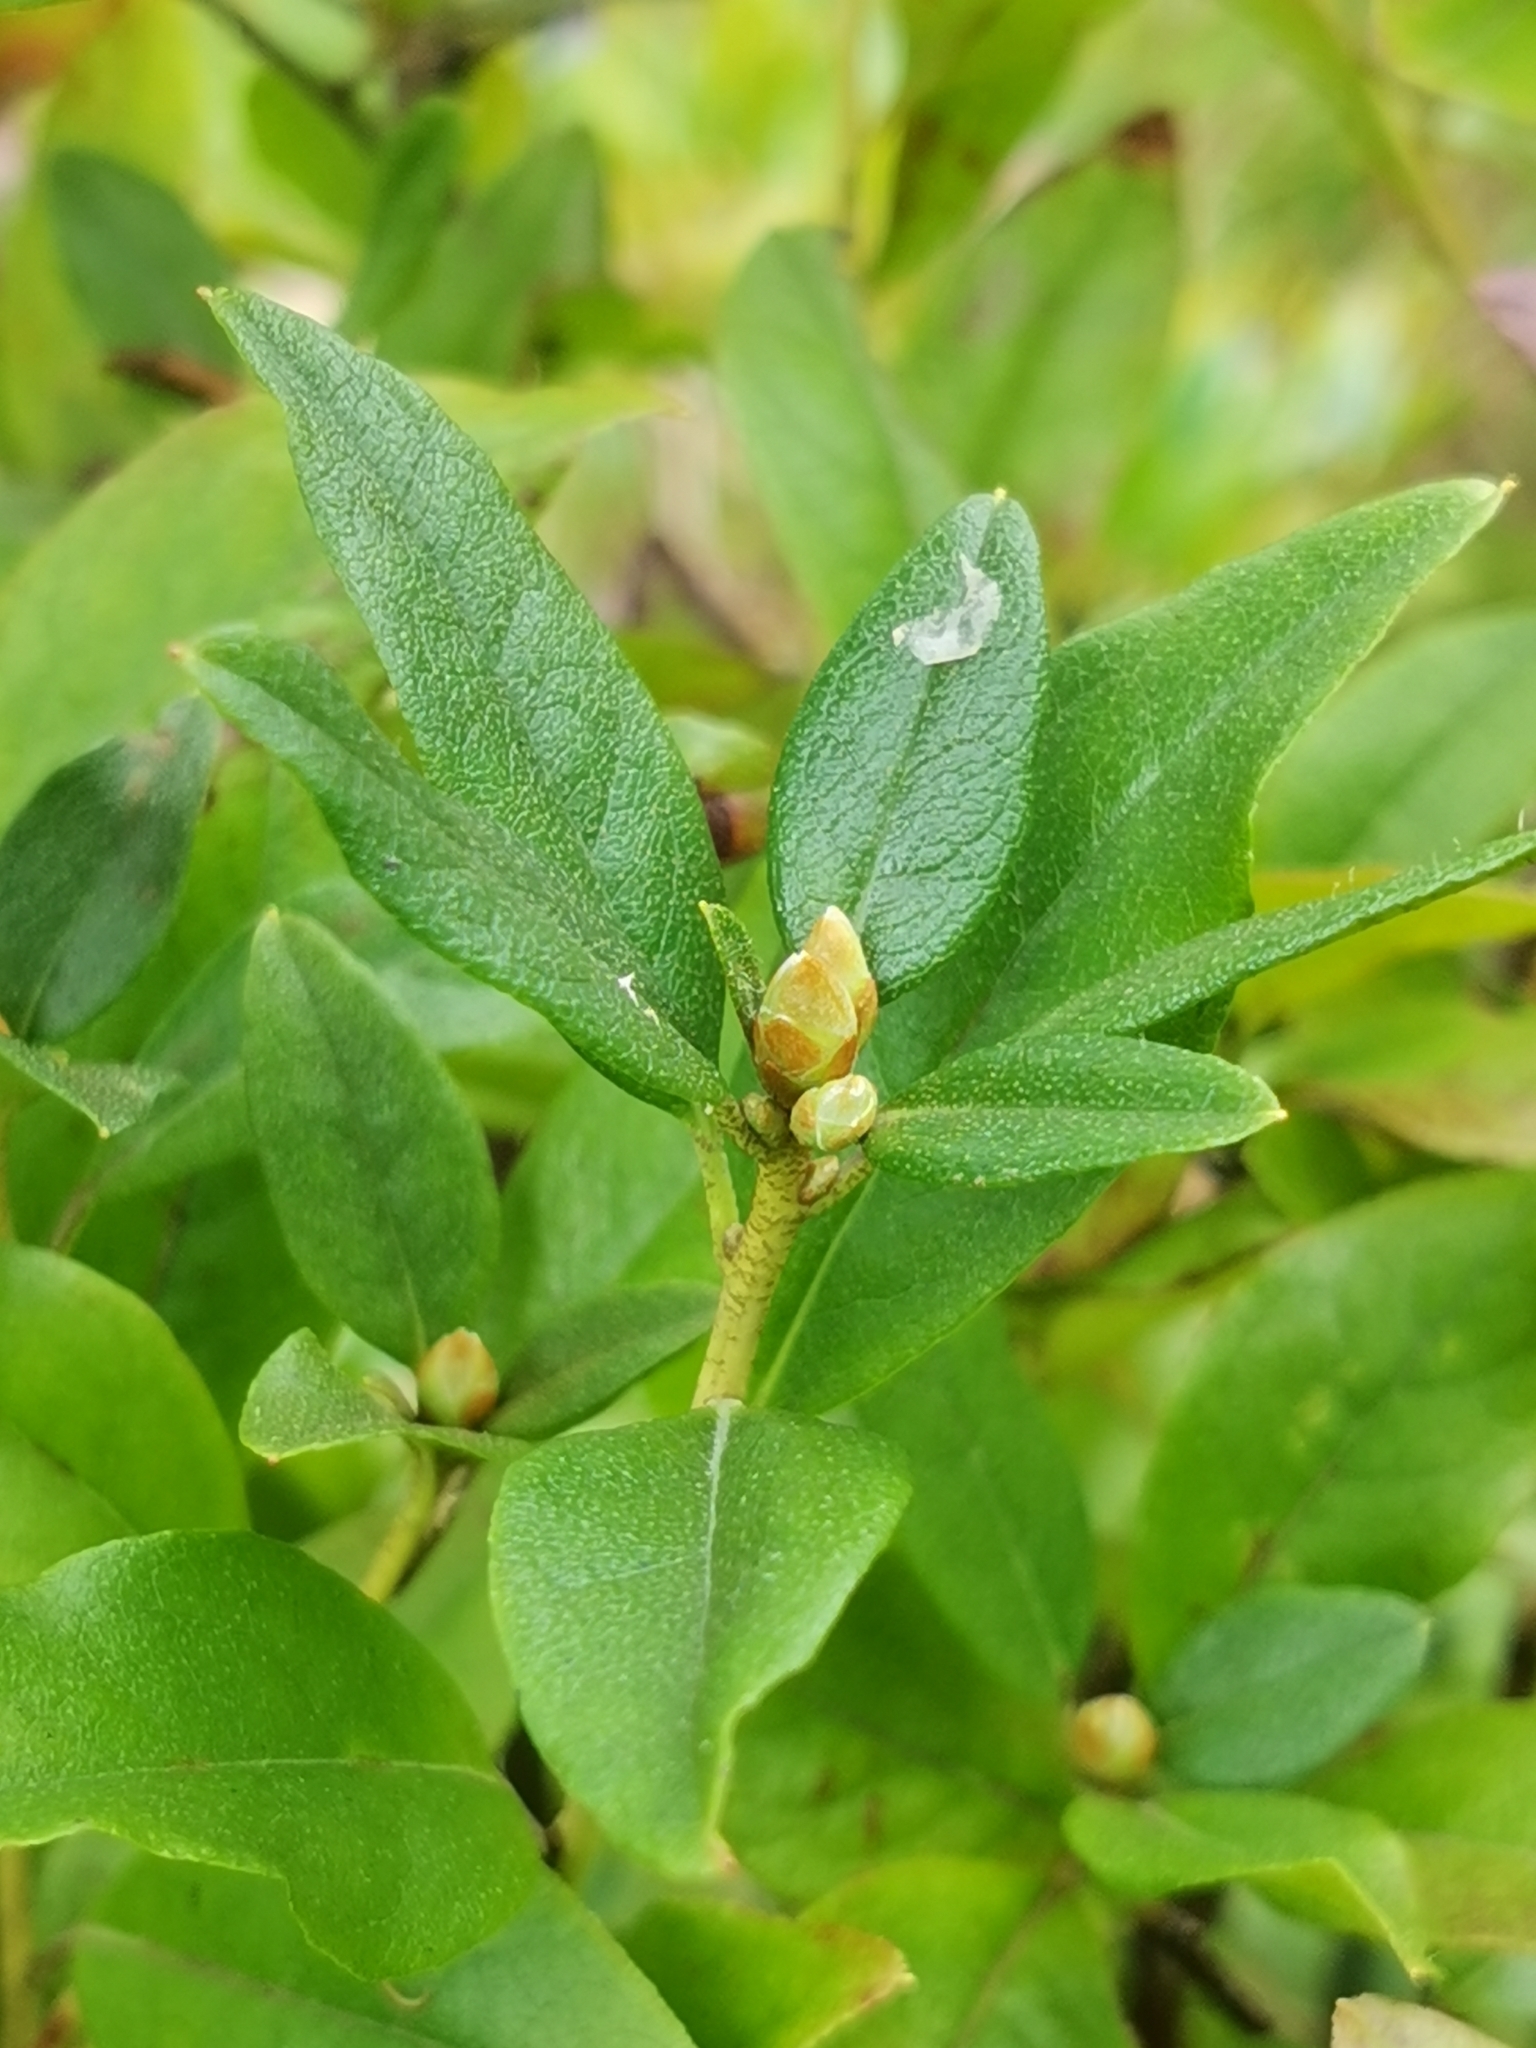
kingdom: Plantae
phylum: Tracheophyta
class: Magnoliopsida
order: Ericales
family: Ericaceae
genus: Rhododendron
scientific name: Rhododendron mucronulatum
